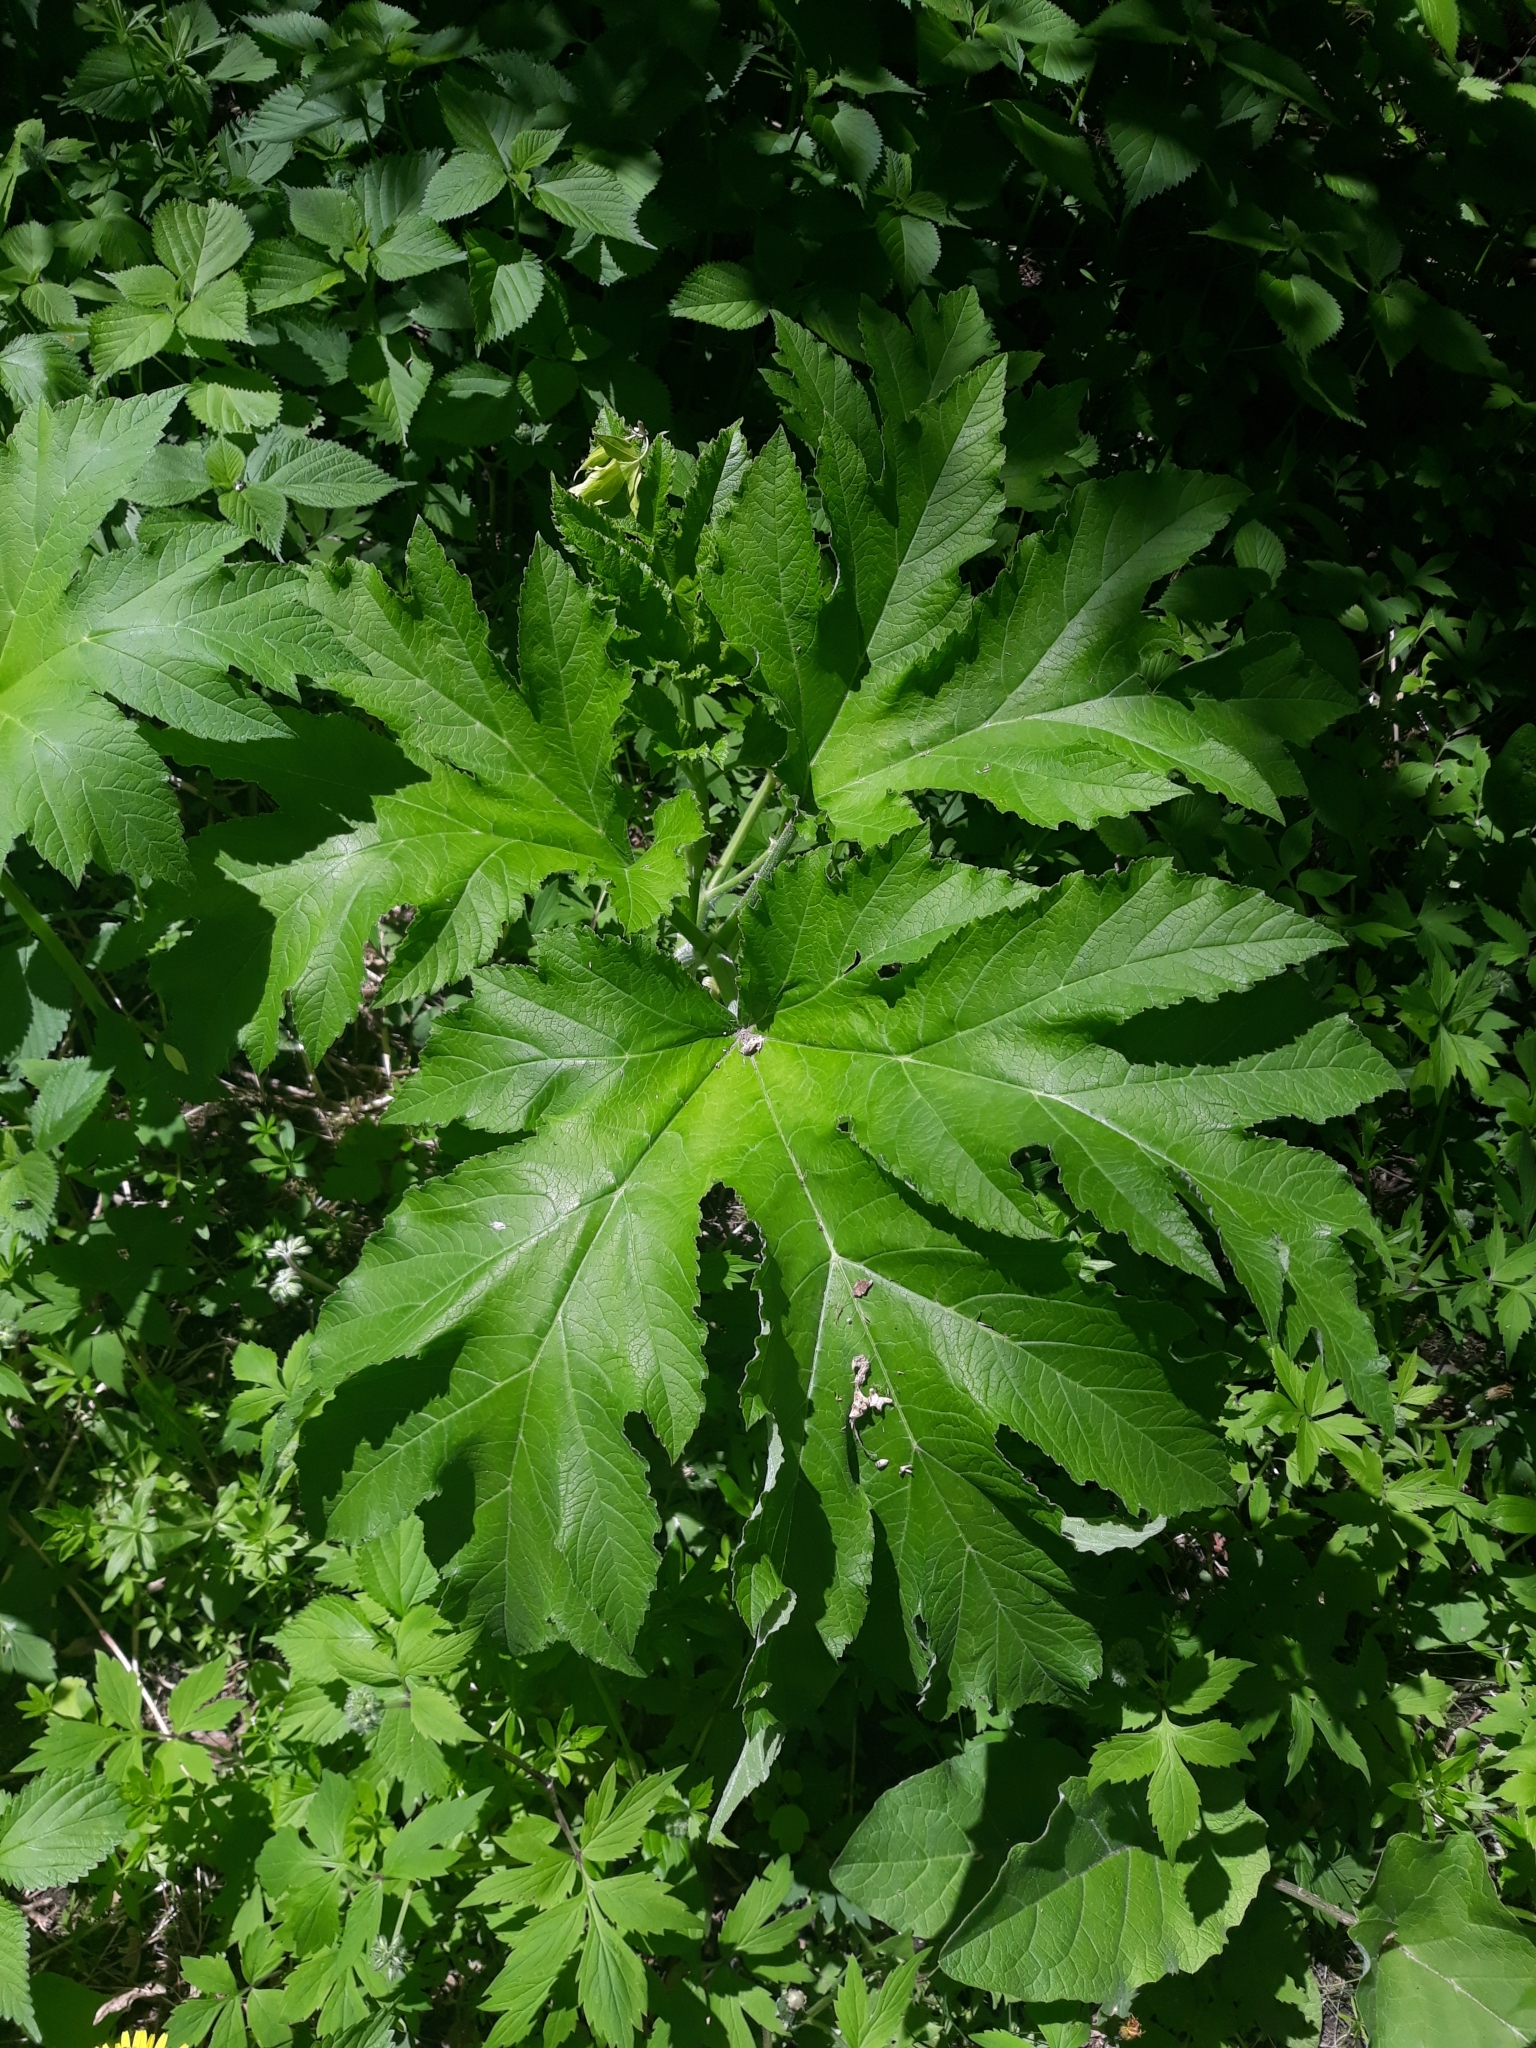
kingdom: Plantae
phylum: Tracheophyta
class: Magnoliopsida
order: Apiales
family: Apiaceae
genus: Heracleum
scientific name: Heracleum maximum
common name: American cow parsnip
